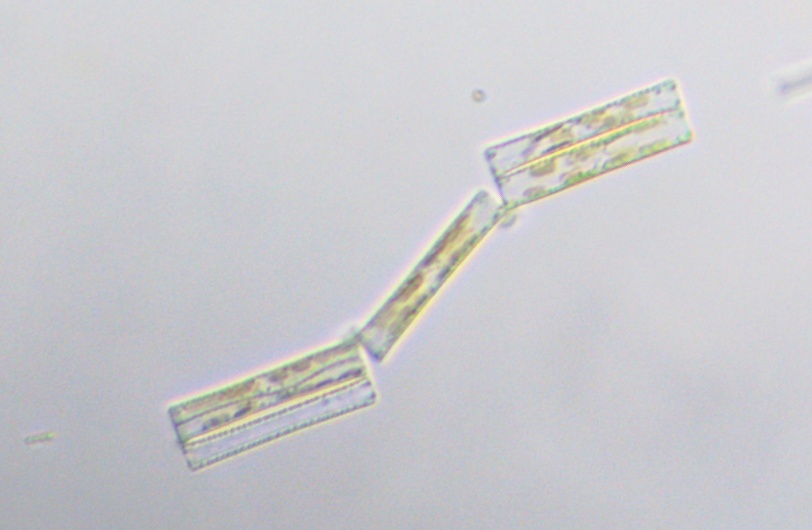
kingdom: Chromista
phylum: Ochrophyta
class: Bacillariophyceae
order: Fragilariales
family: Fragilariaceae
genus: Diatoma
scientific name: Diatoma elongatum
